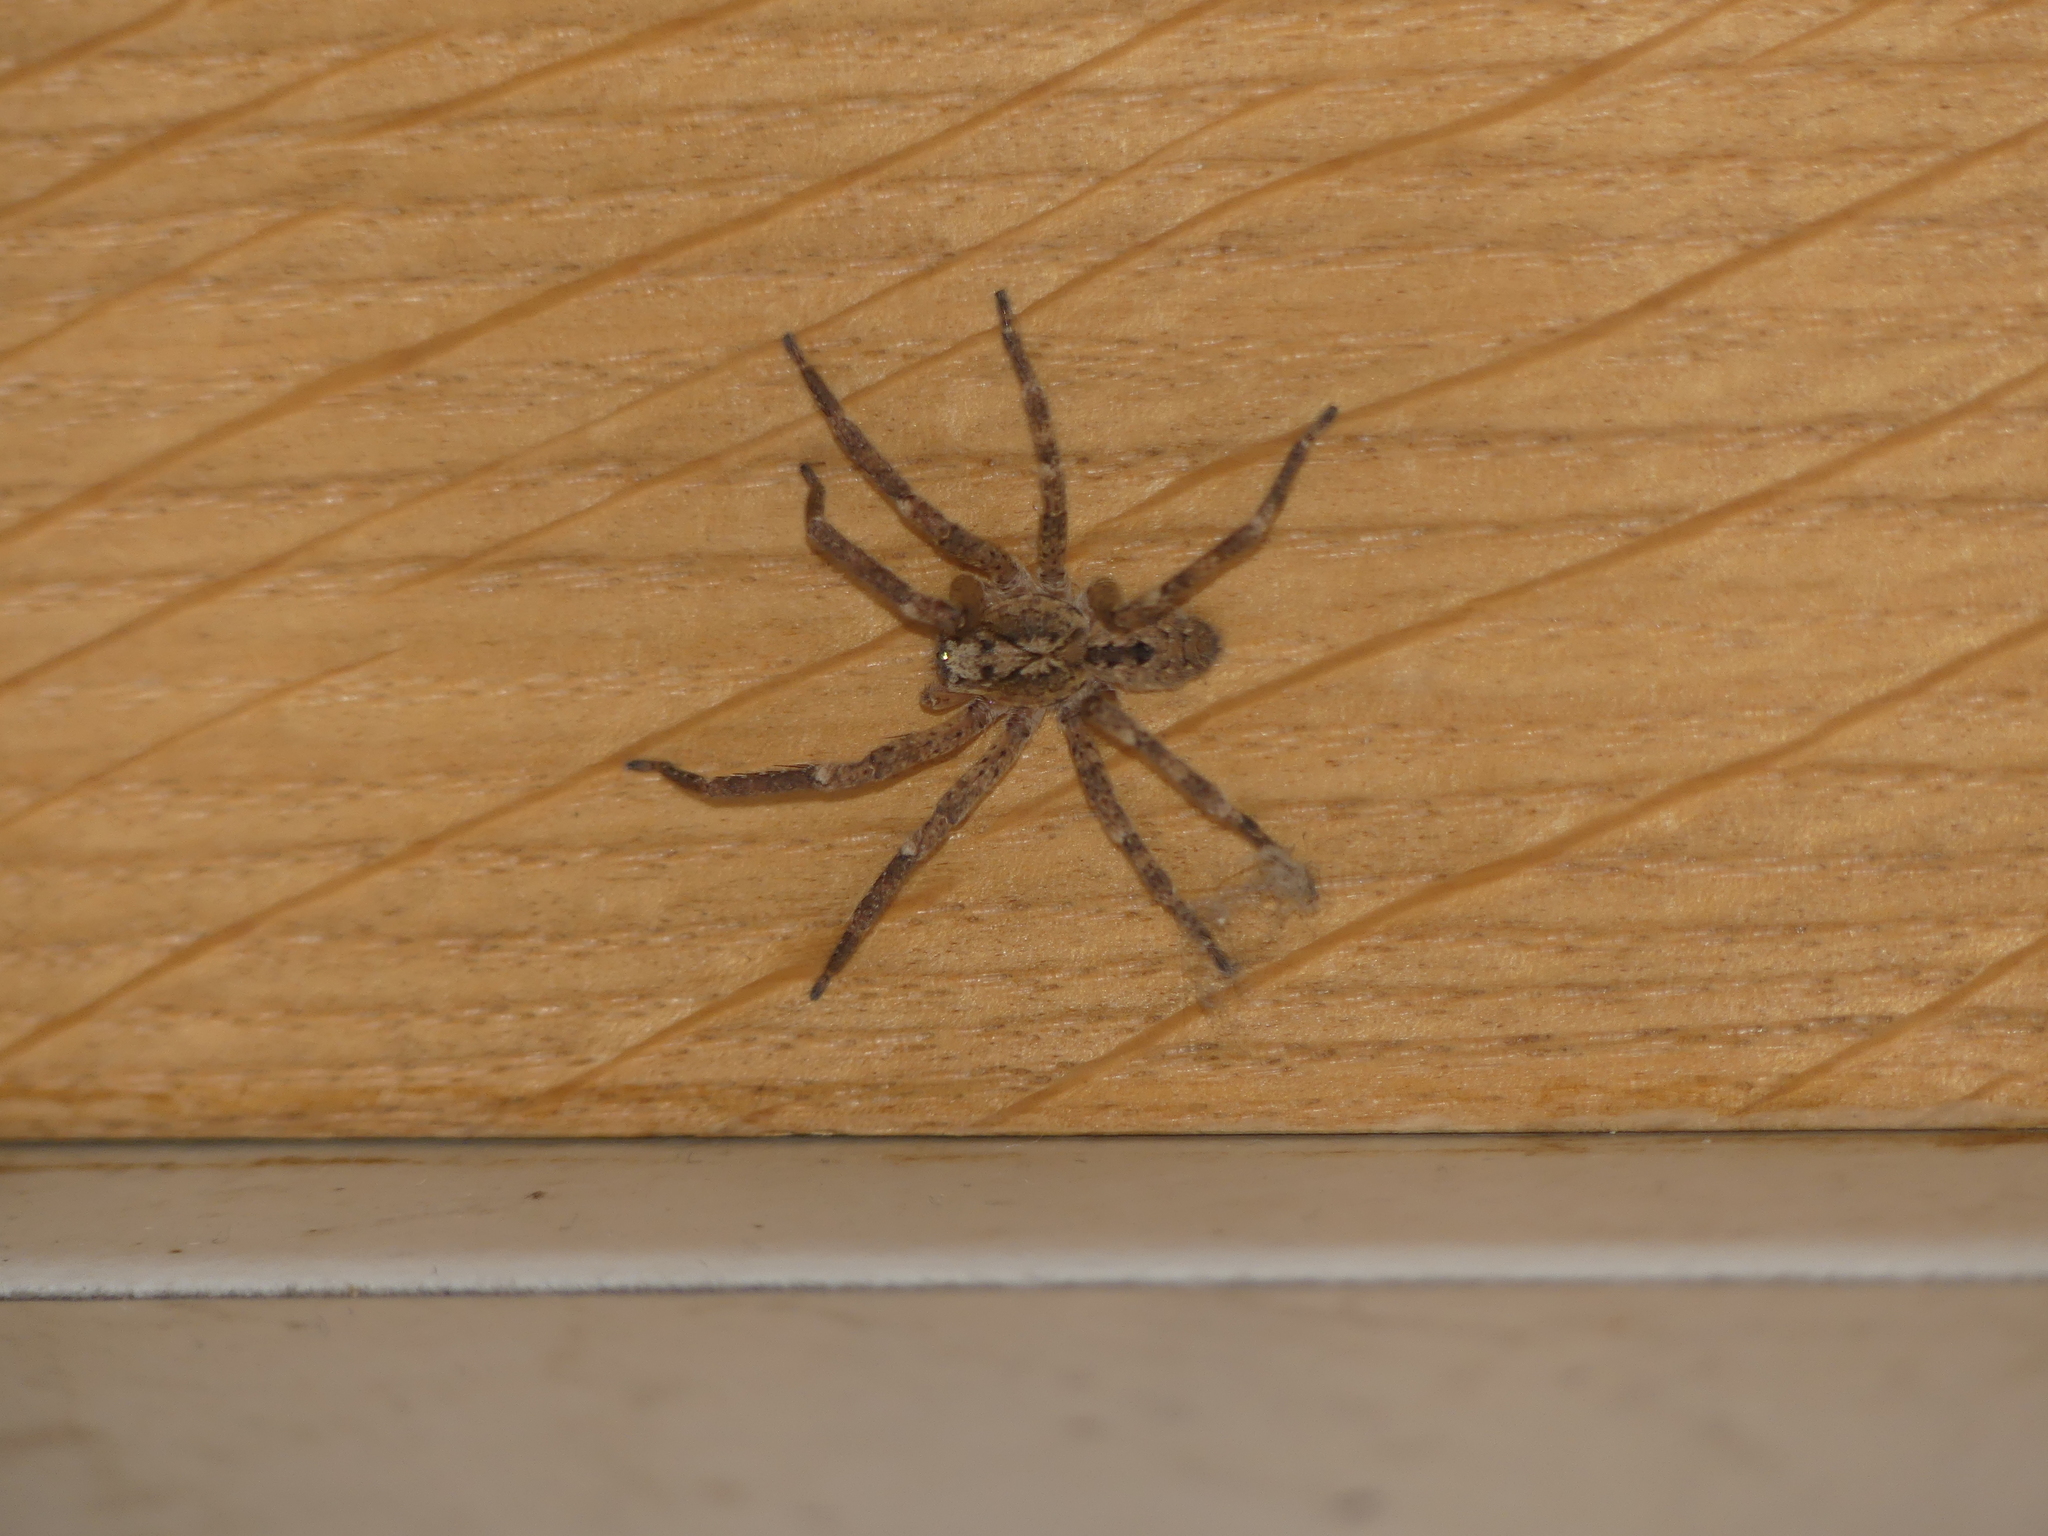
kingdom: Animalia
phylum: Arthropoda
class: Arachnida
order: Araneae
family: Zoropsidae
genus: Zoropsis
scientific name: Zoropsis spinimana
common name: Zoropsid spider
